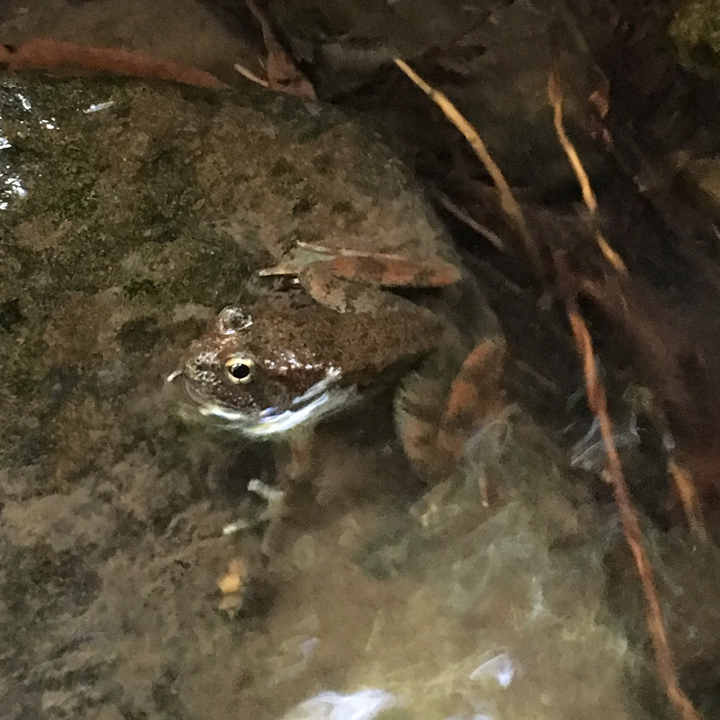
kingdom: Animalia
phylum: Chordata
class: Amphibia
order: Anura
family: Ranidae
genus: Rana
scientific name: Rana boylii
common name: Foothill yellow-legged frog
